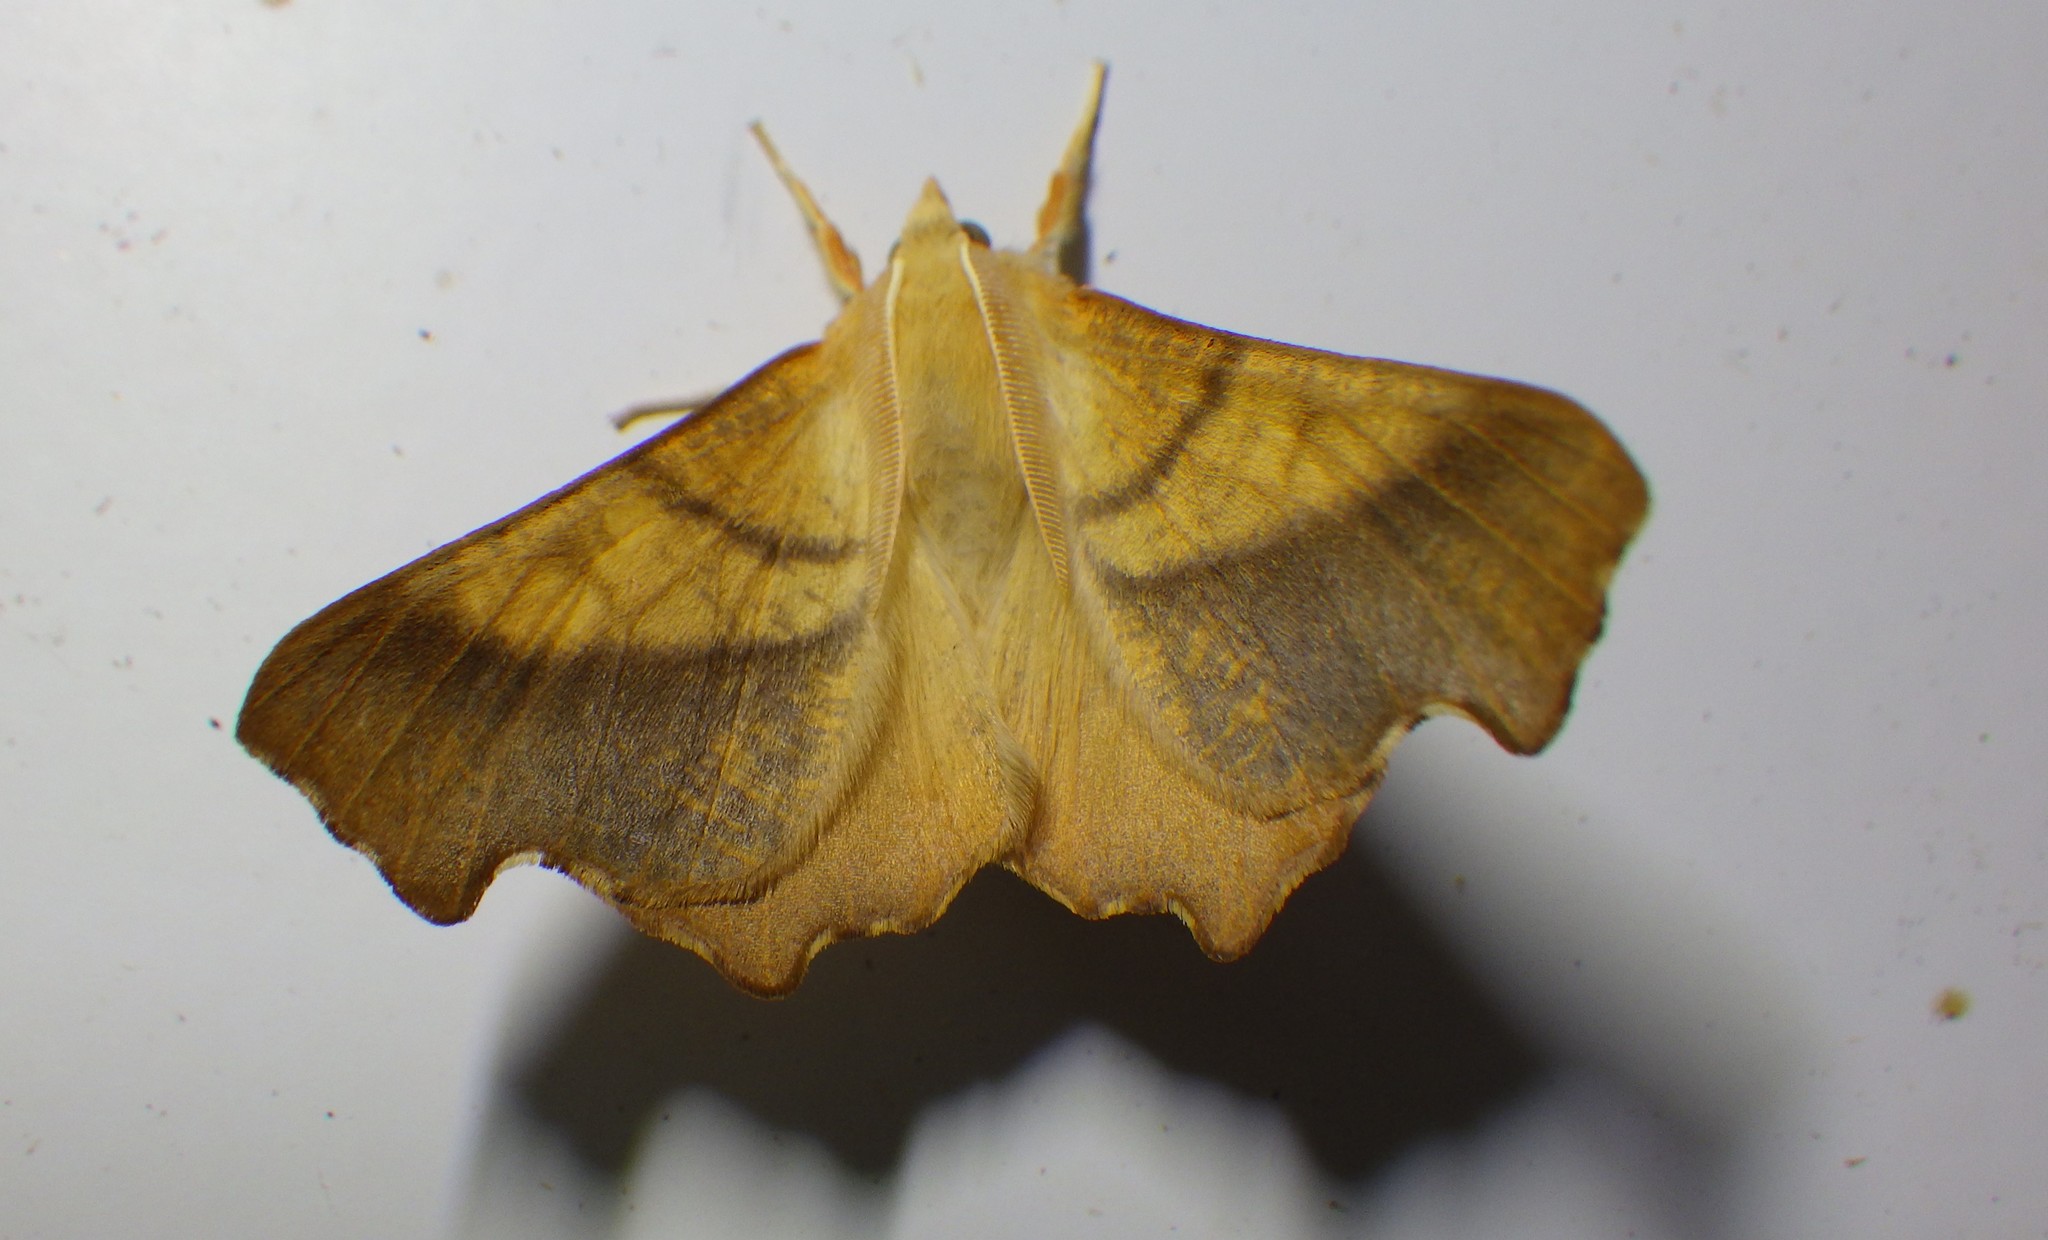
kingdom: Animalia
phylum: Arthropoda
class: Insecta
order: Lepidoptera
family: Geometridae
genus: Ennomos
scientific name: Ennomos fuscantaria
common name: Dusky thorn
